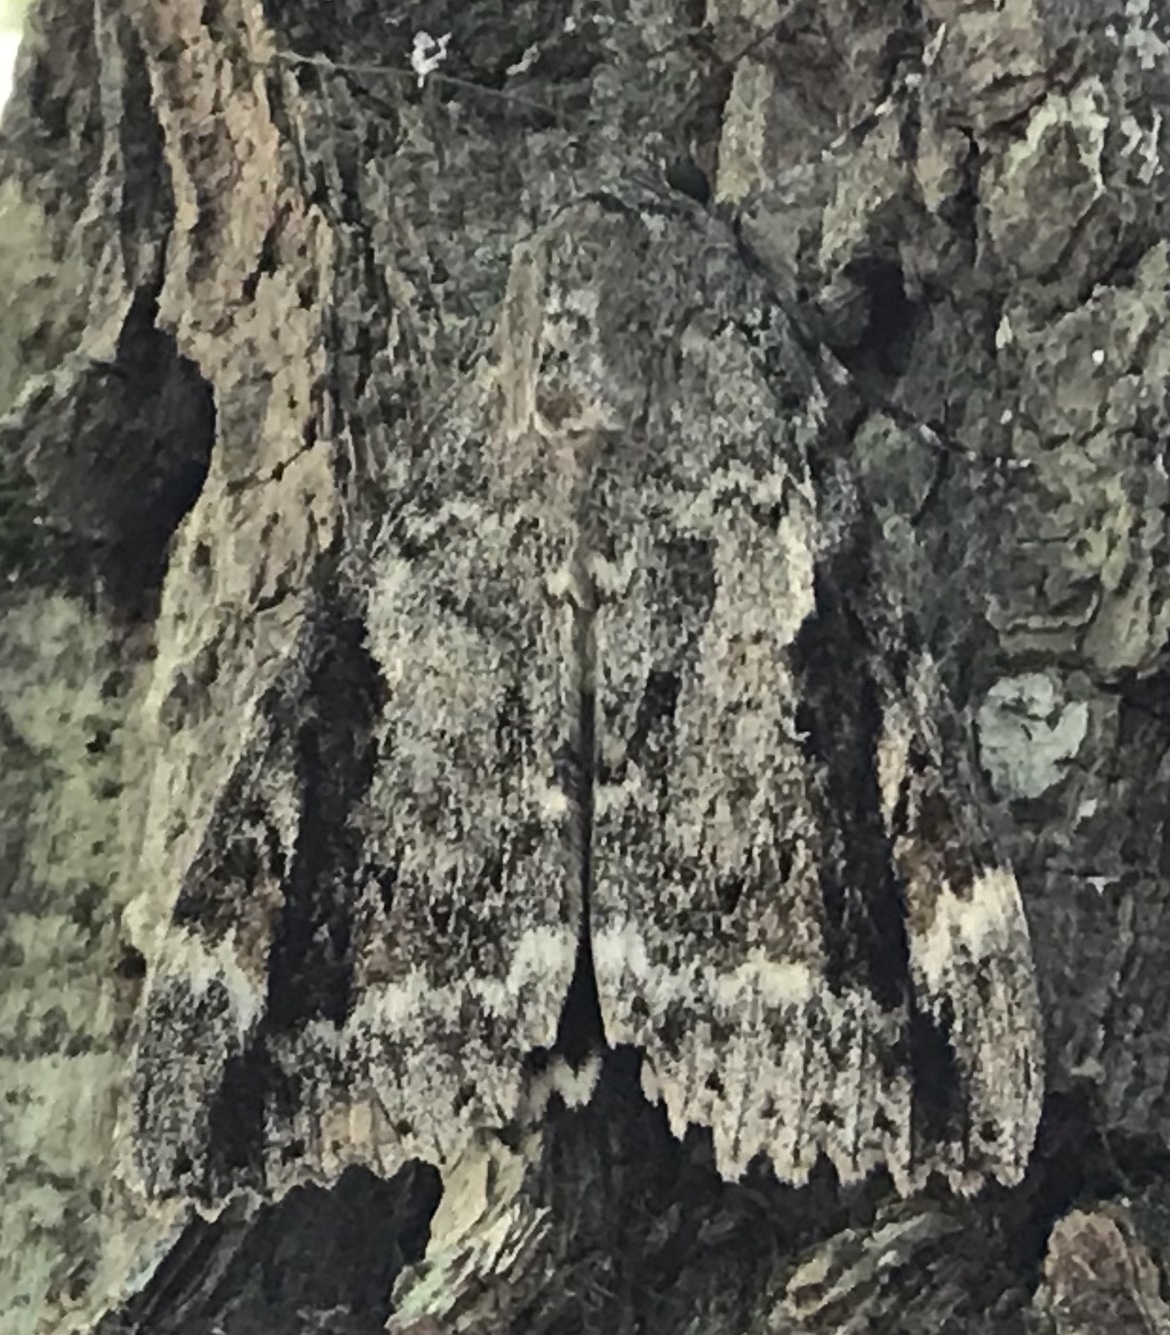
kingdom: Animalia
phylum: Arthropoda
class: Insecta
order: Lepidoptera
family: Erebidae
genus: Catocala
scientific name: Catocala marmorata
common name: Marbled underwing
